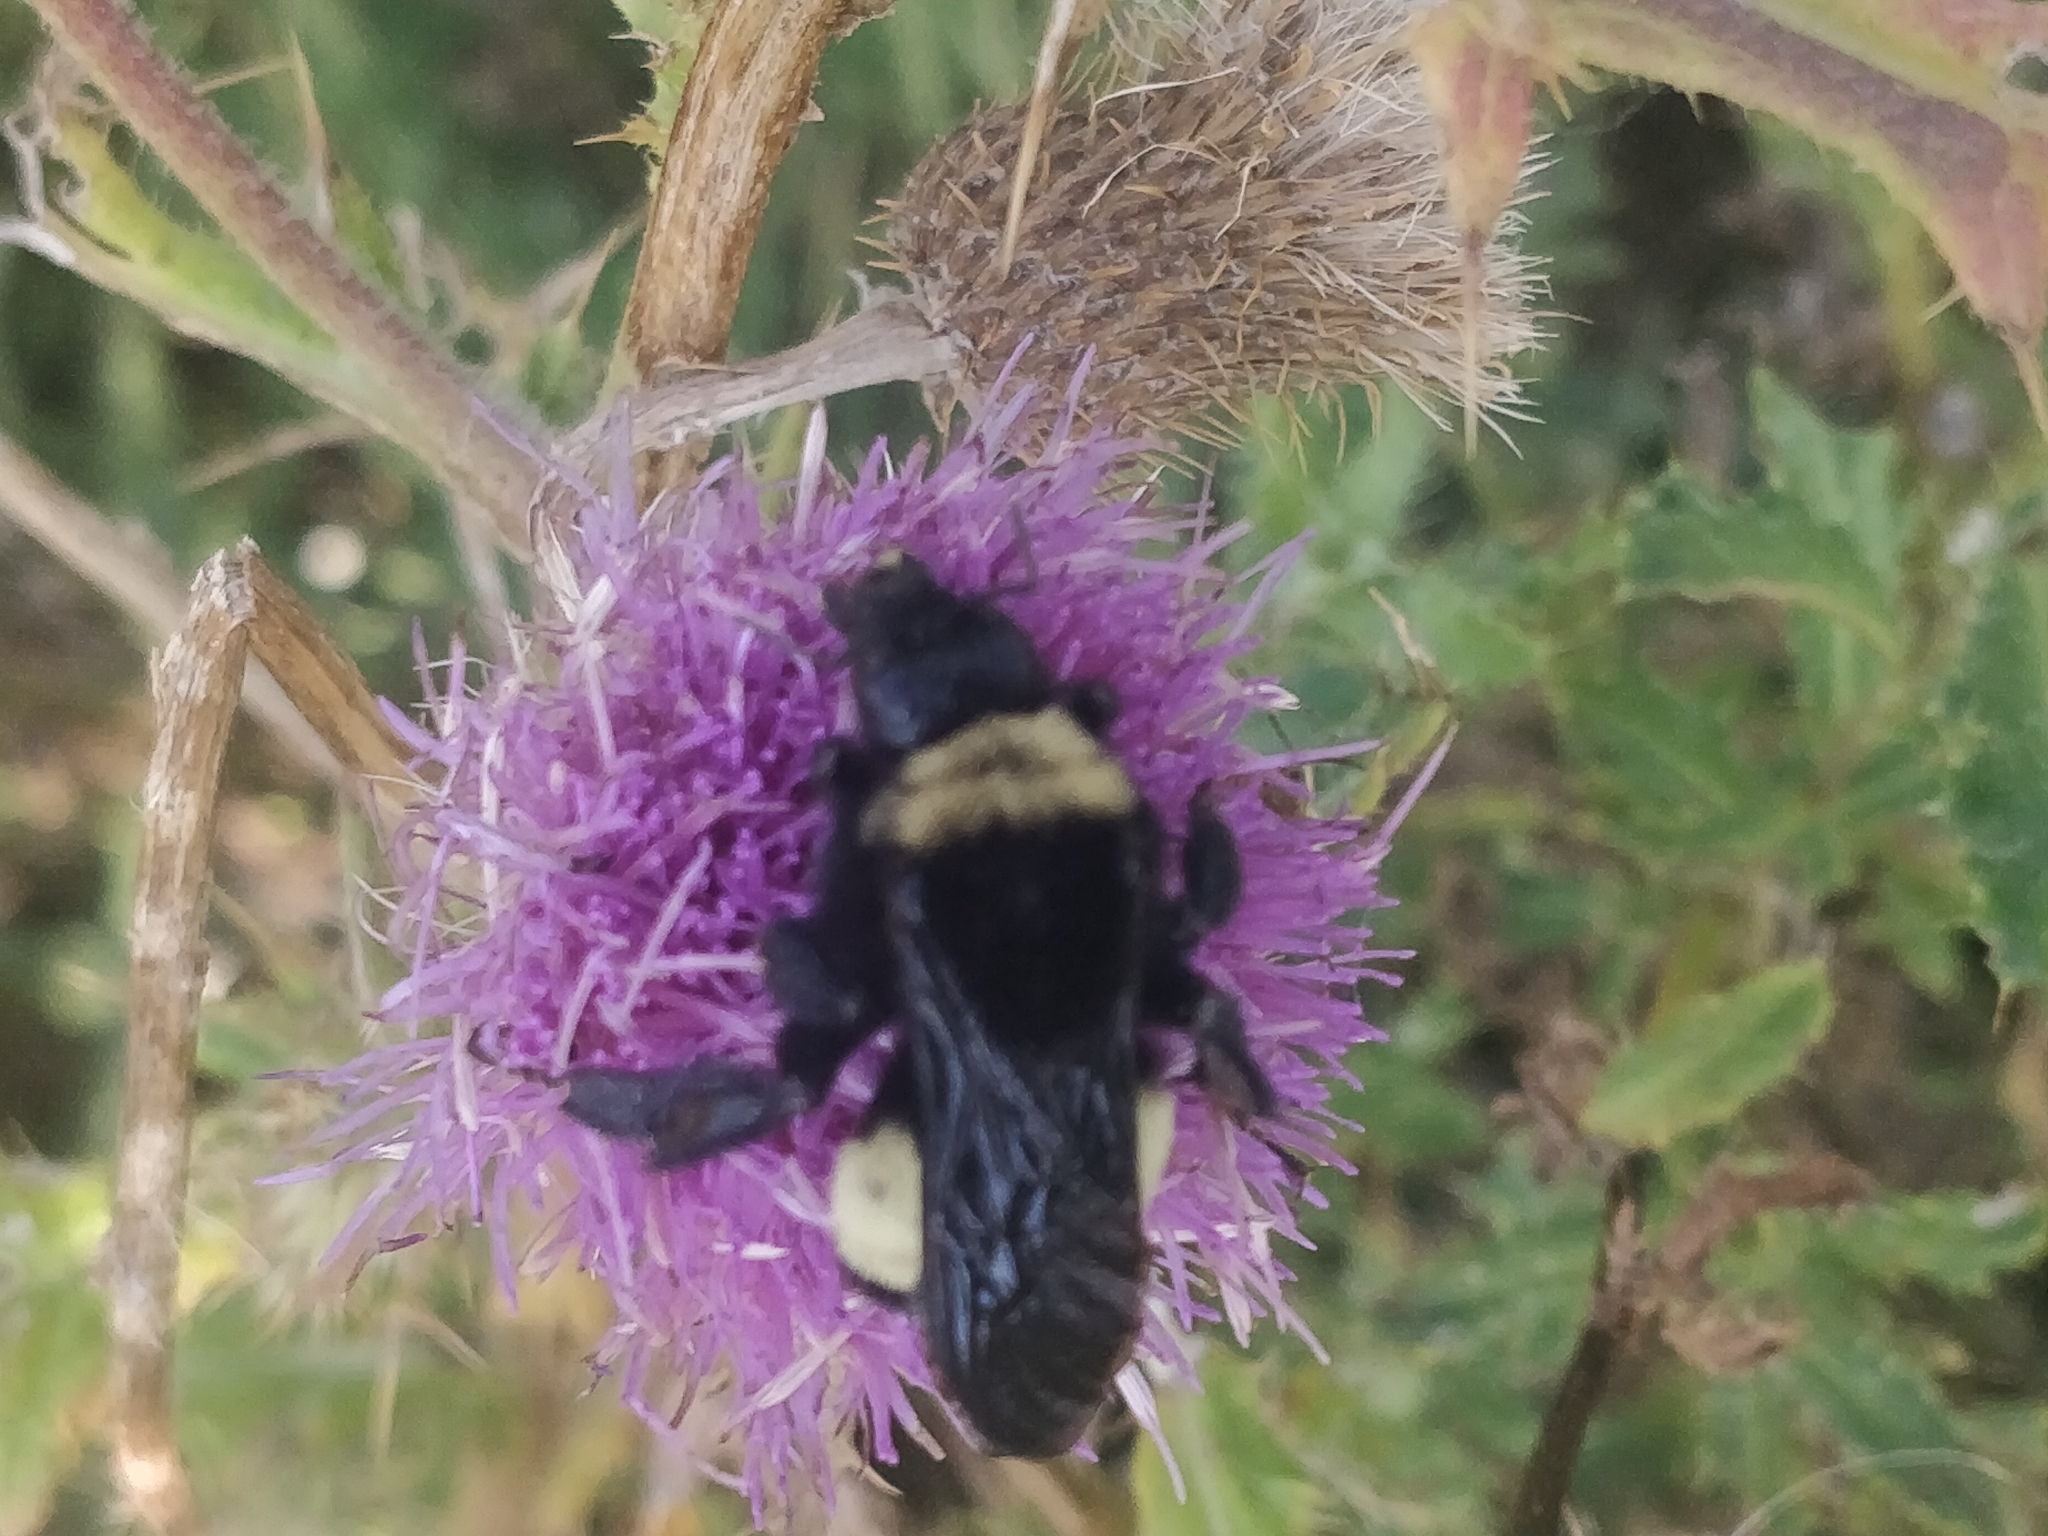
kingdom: Animalia
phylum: Arthropoda
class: Insecta
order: Hymenoptera
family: Apidae
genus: Bombus
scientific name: Bombus pensylvanicus
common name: Bumble bee
